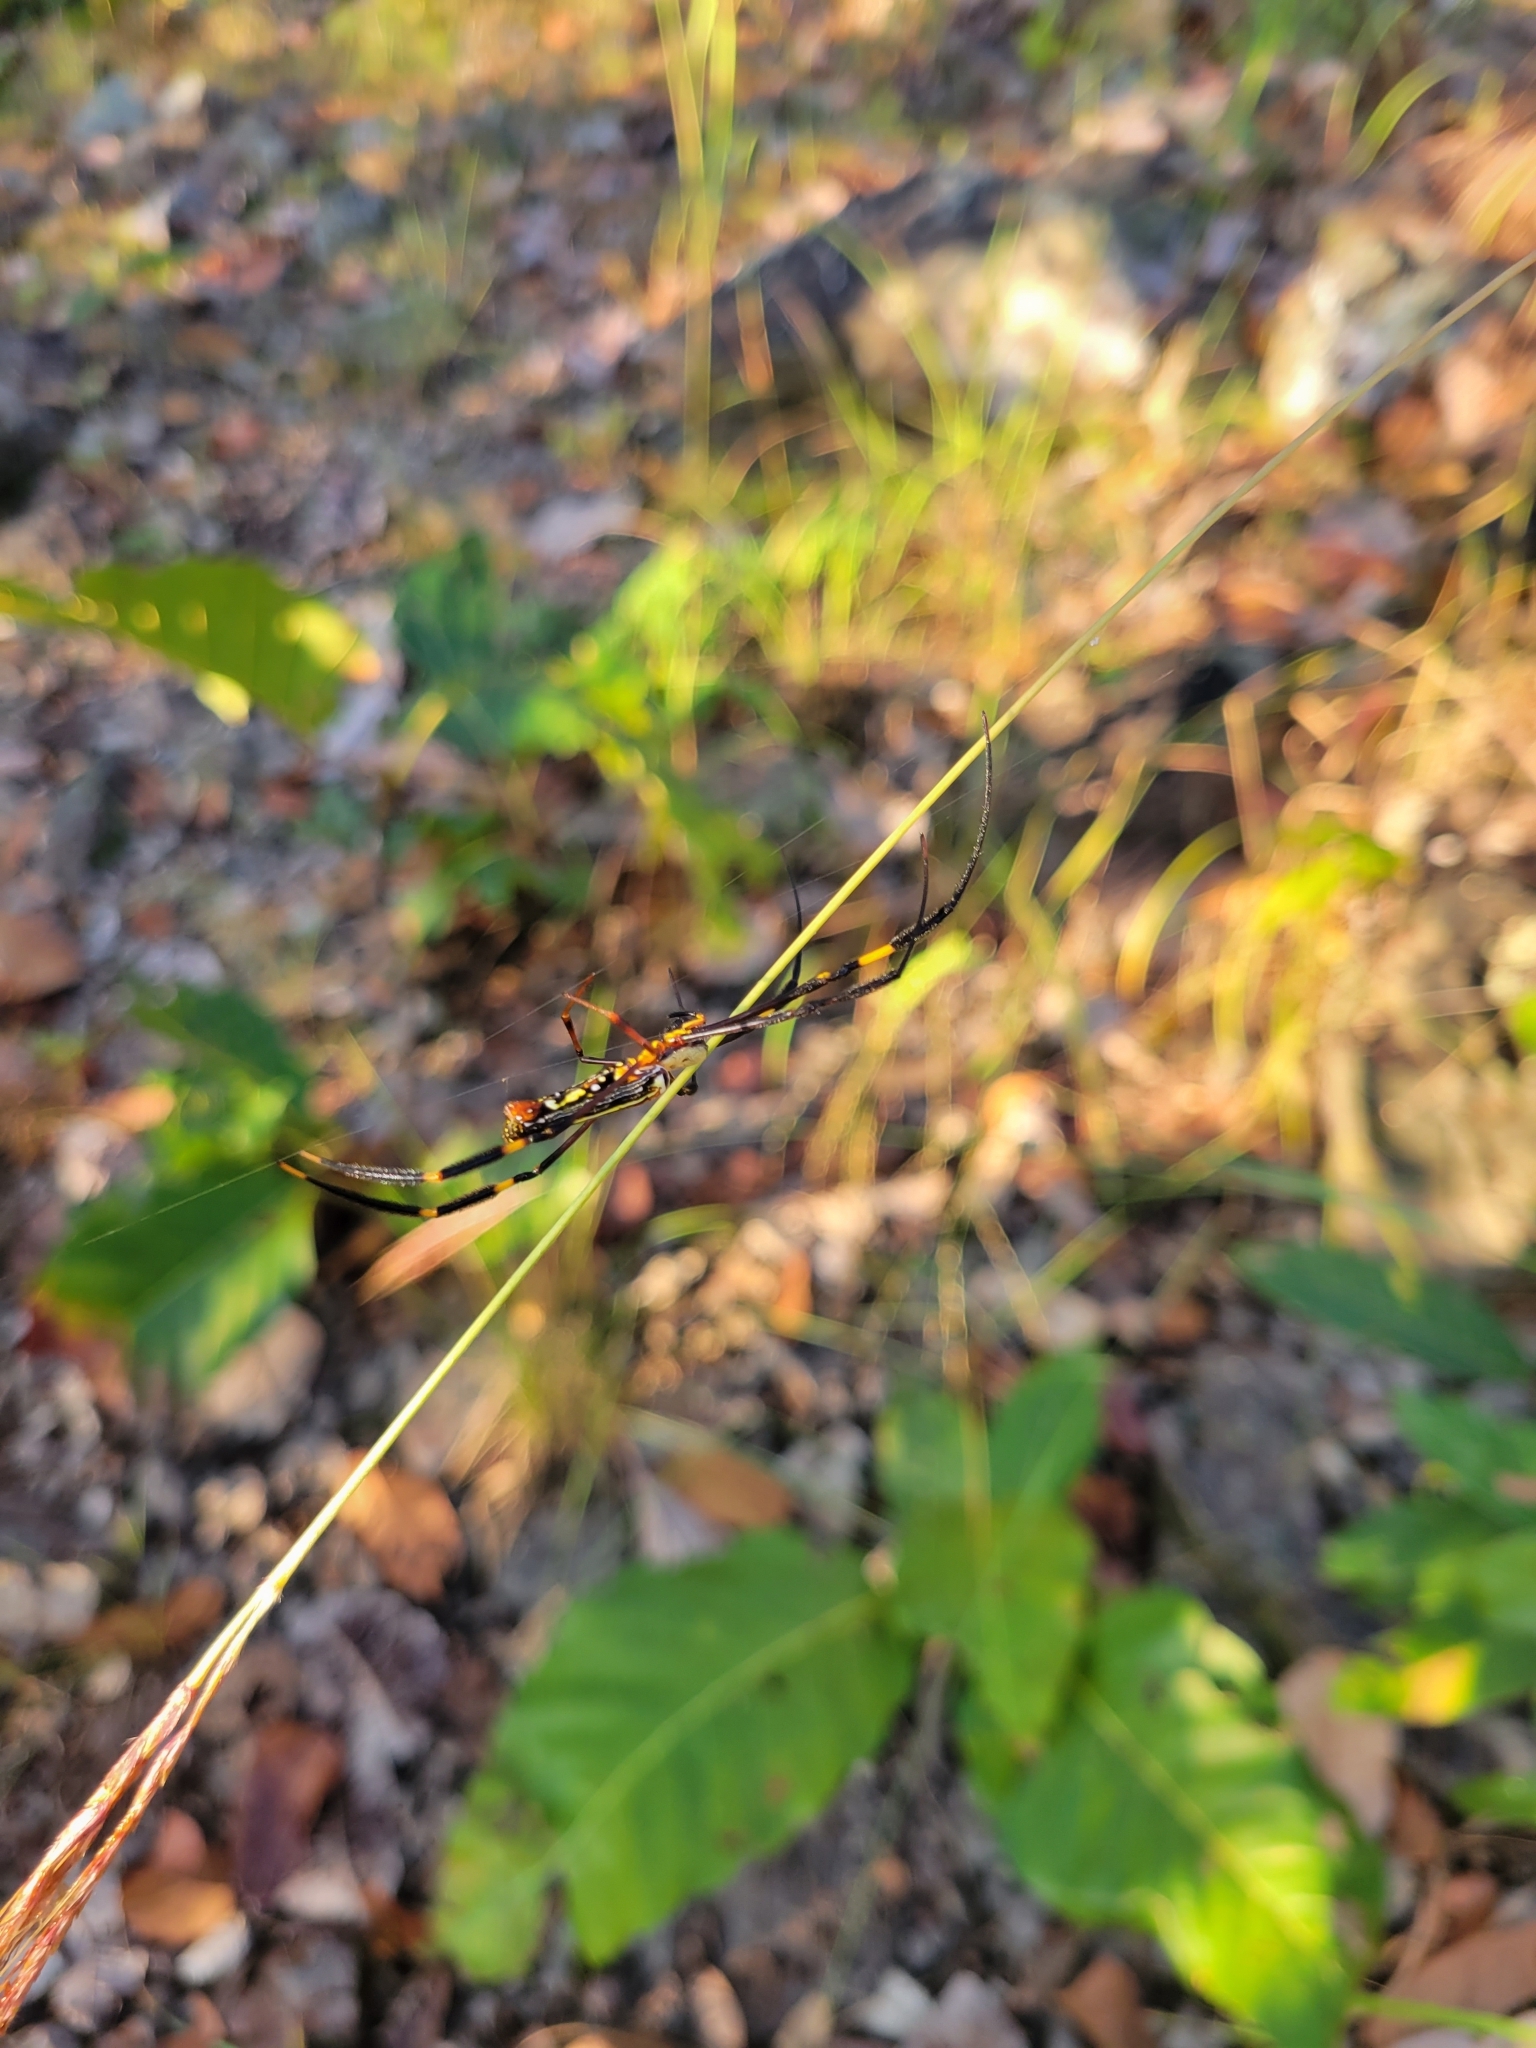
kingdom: Animalia
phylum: Arthropoda
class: Arachnida
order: Araneae
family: Araneidae
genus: Nephila
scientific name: Nephila pilipes
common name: Giant golden orb weaver
